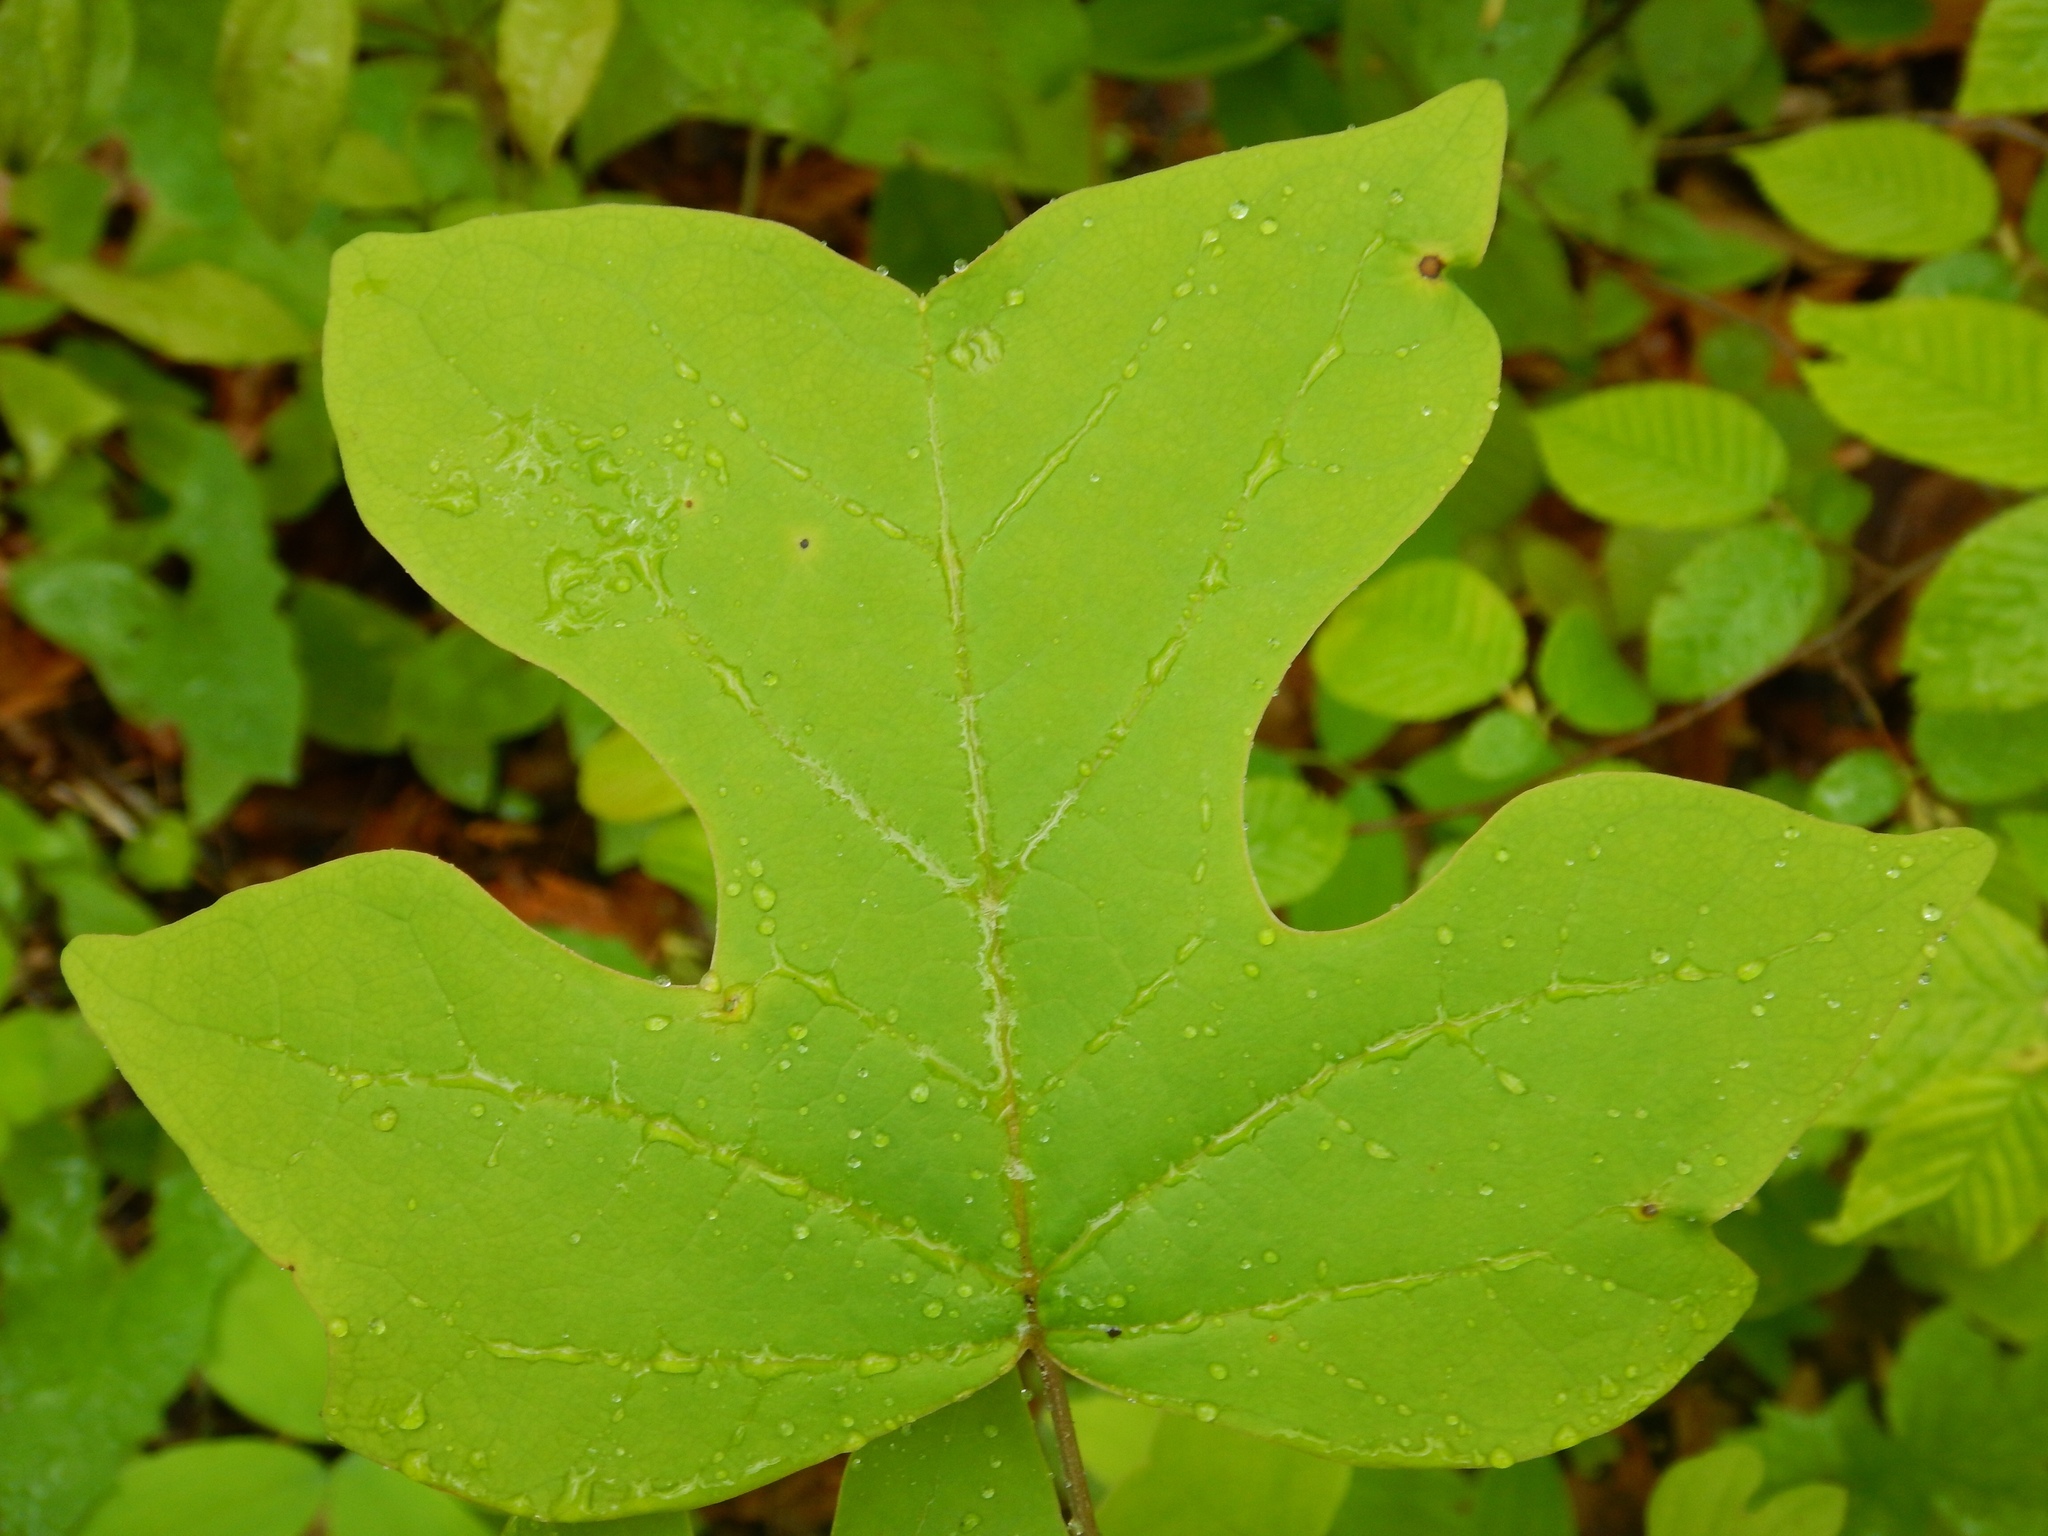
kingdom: Plantae
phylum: Tracheophyta
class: Magnoliopsida
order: Magnoliales
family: Magnoliaceae
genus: Liriodendron
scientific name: Liriodendron tulipifera
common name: Tulip tree
